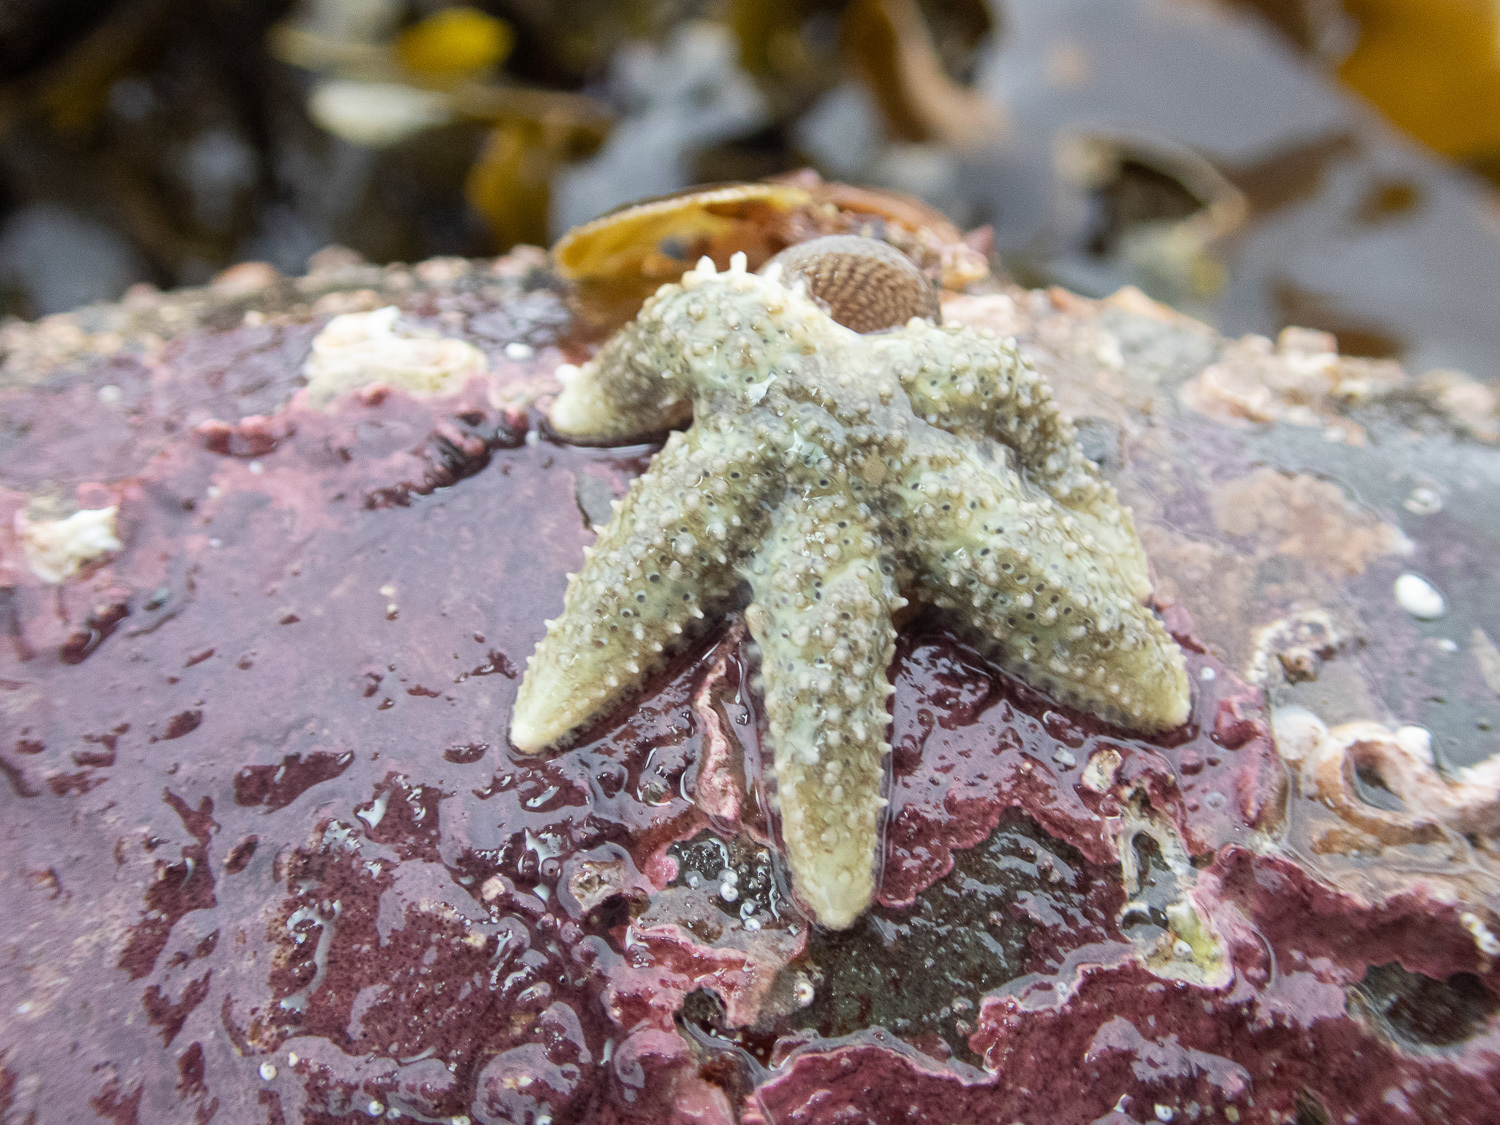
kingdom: Animalia
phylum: Echinodermata
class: Asteroidea
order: Forcipulatida
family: Asteriidae
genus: Leptasterias
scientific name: Leptasterias muelleri
